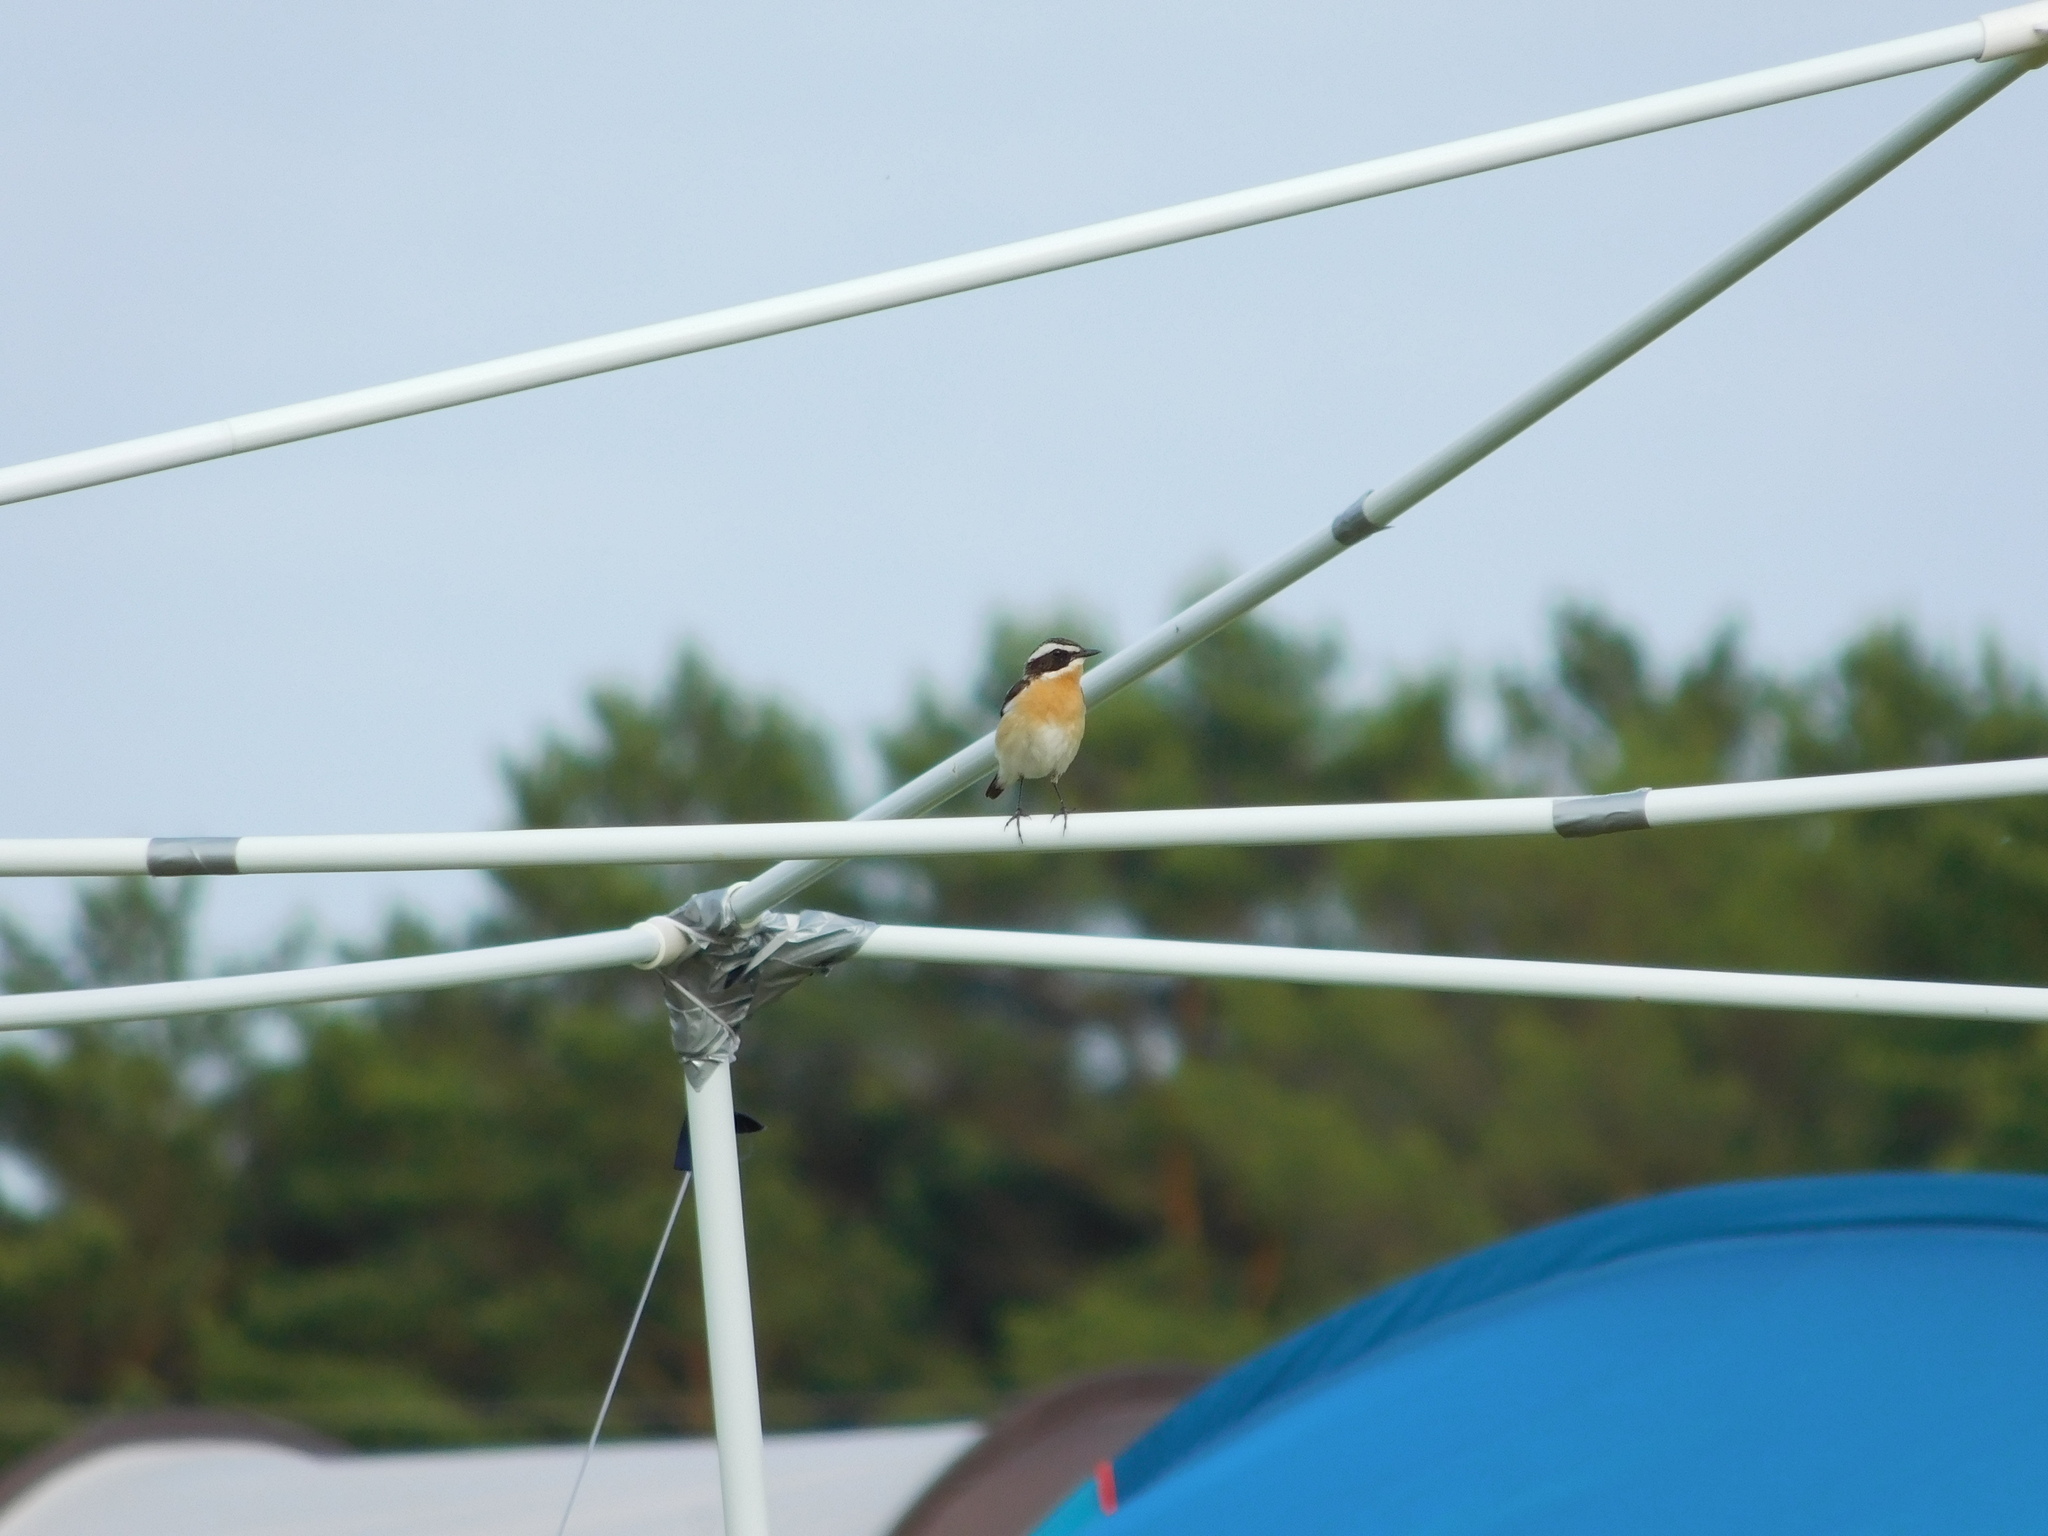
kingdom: Animalia
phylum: Chordata
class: Aves
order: Passeriformes
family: Muscicapidae
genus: Saxicola
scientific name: Saxicola rubetra
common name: Whinchat
